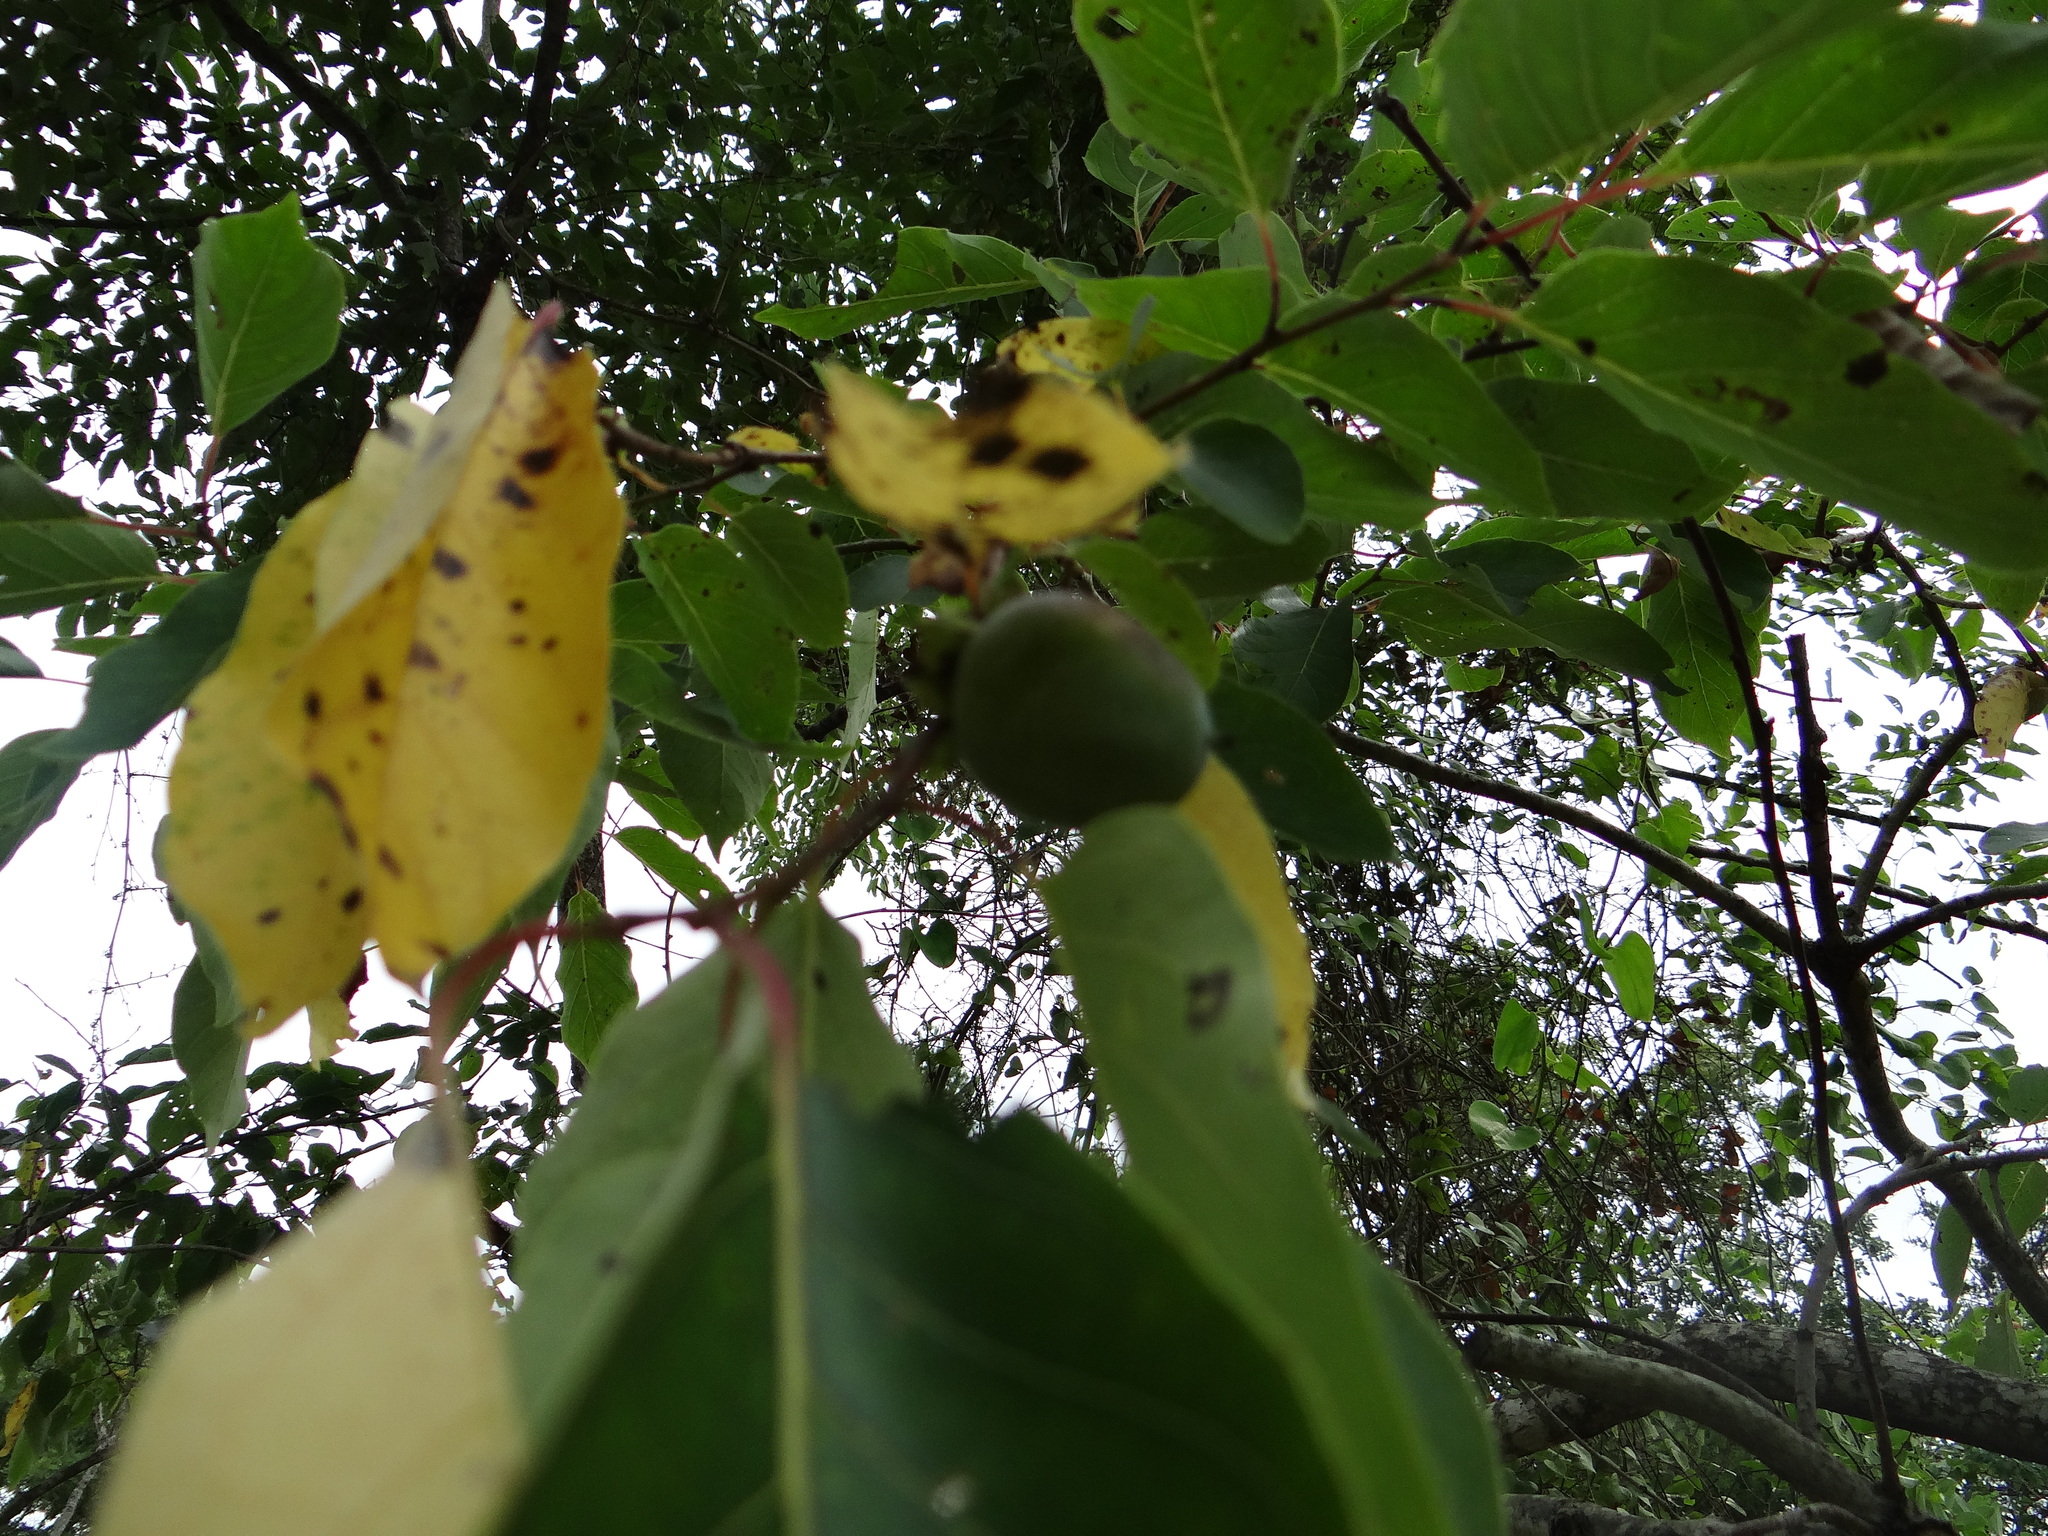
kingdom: Plantae
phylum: Tracheophyta
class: Magnoliopsida
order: Ericales
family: Ebenaceae
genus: Diospyros
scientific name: Diospyros virginiana
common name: Persimmon
